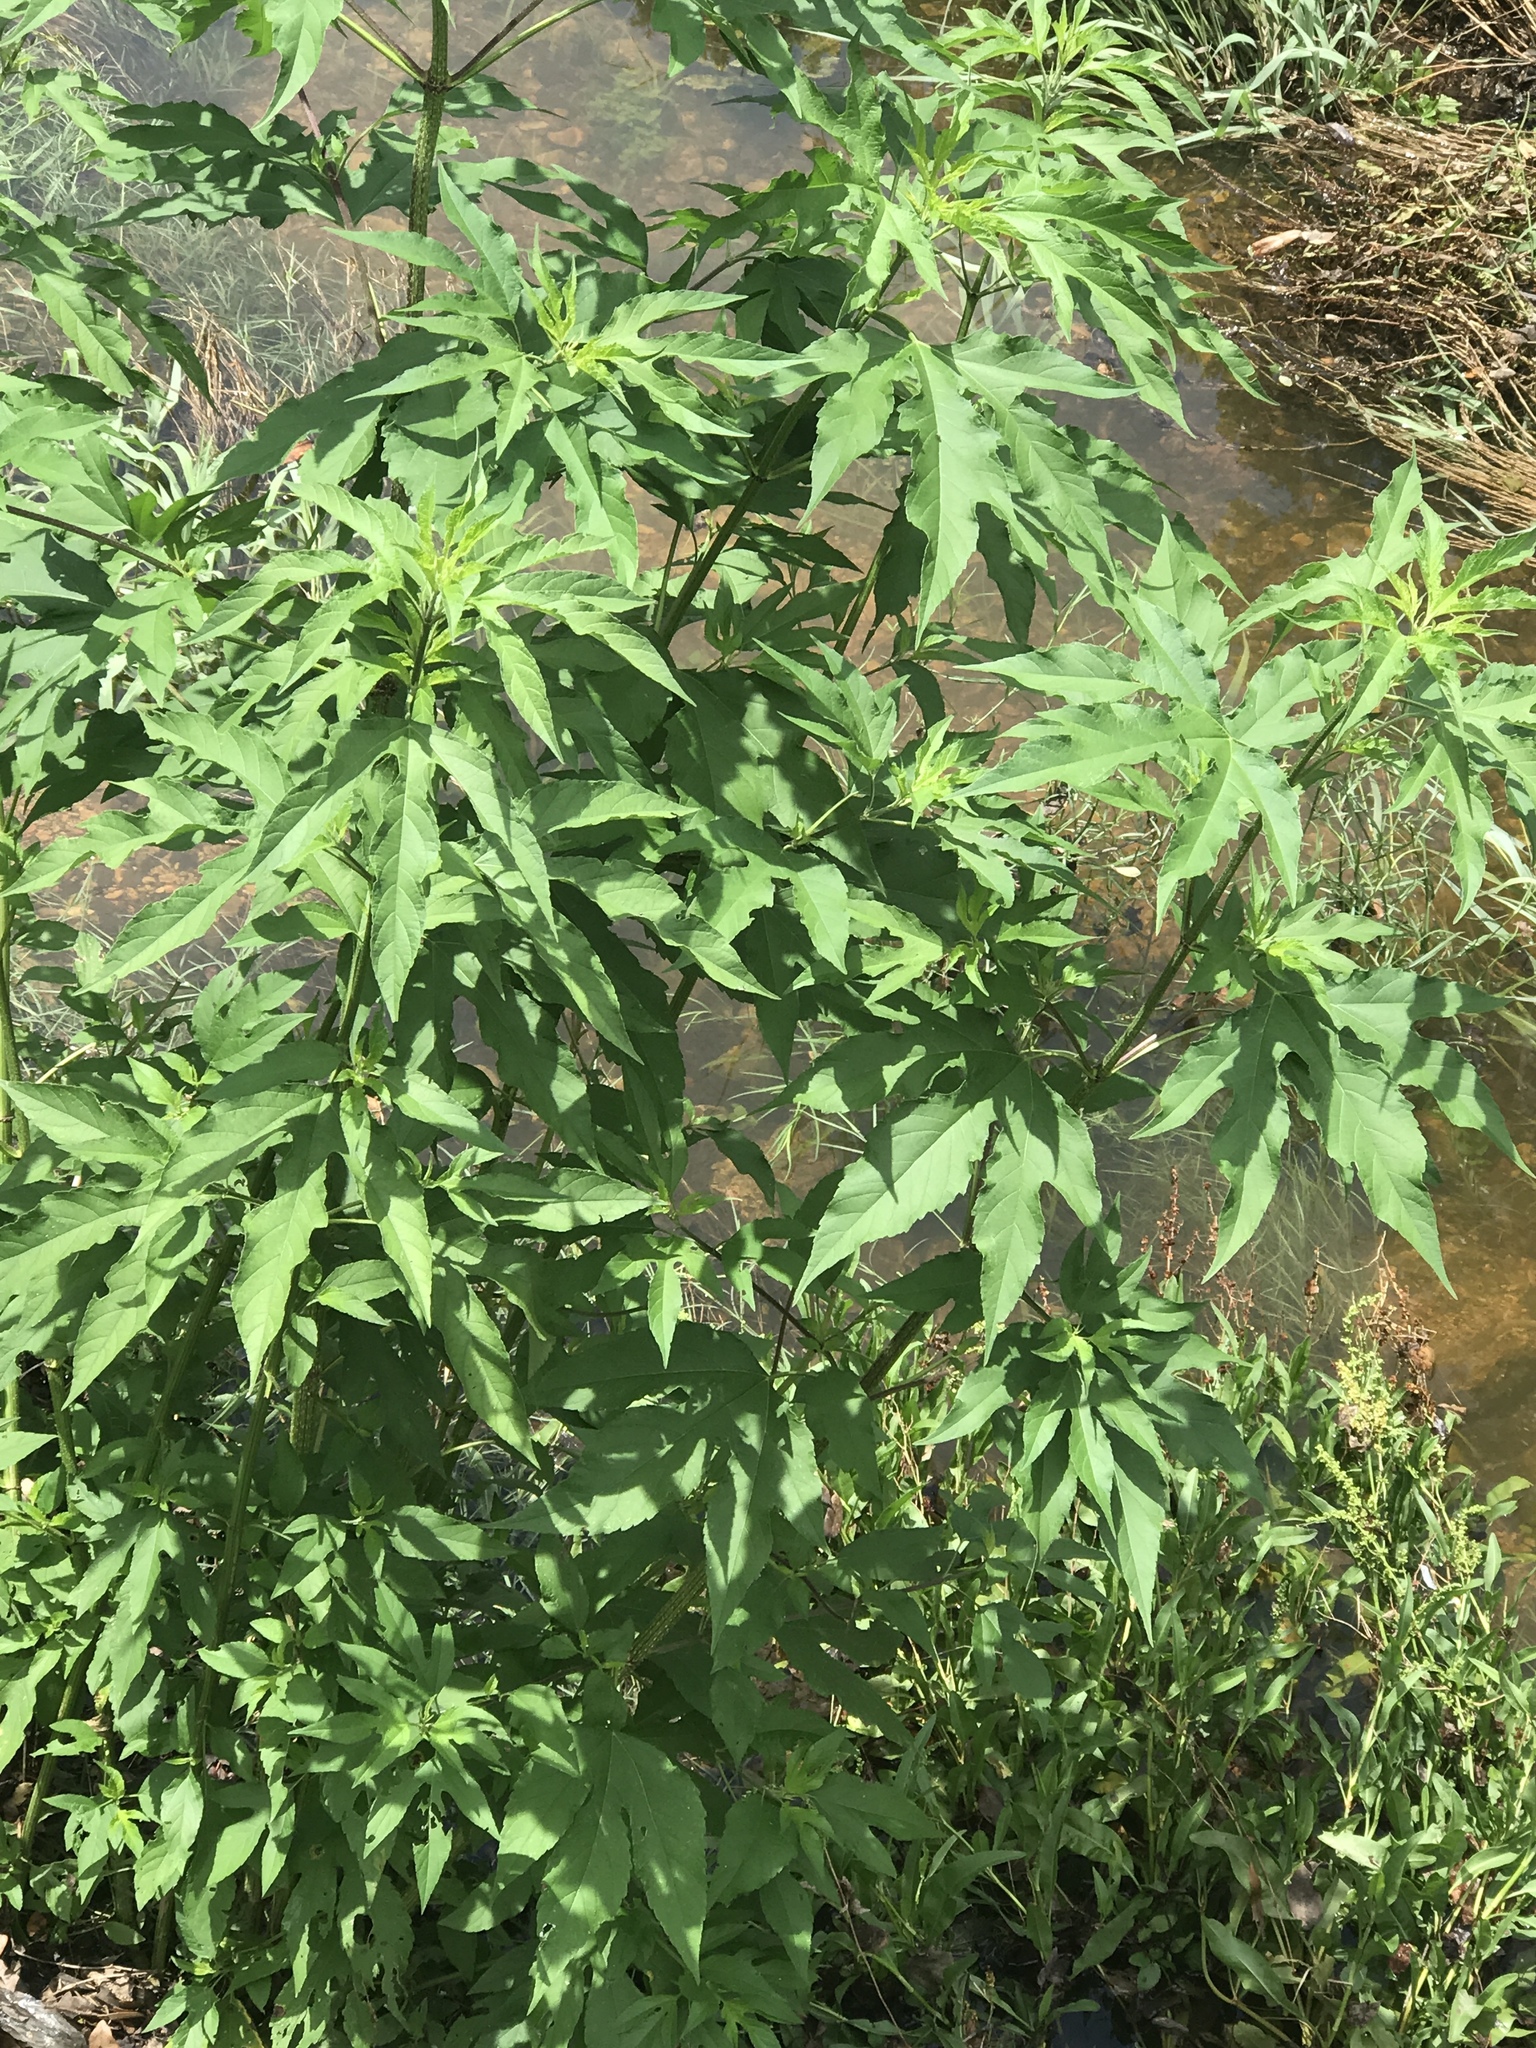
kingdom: Plantae
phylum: Tracheophyta
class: Magnoliopsida
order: Asterales
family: Asteraceae
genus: Ambrosia
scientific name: Ambrosia trifida
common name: Giant ragweed
